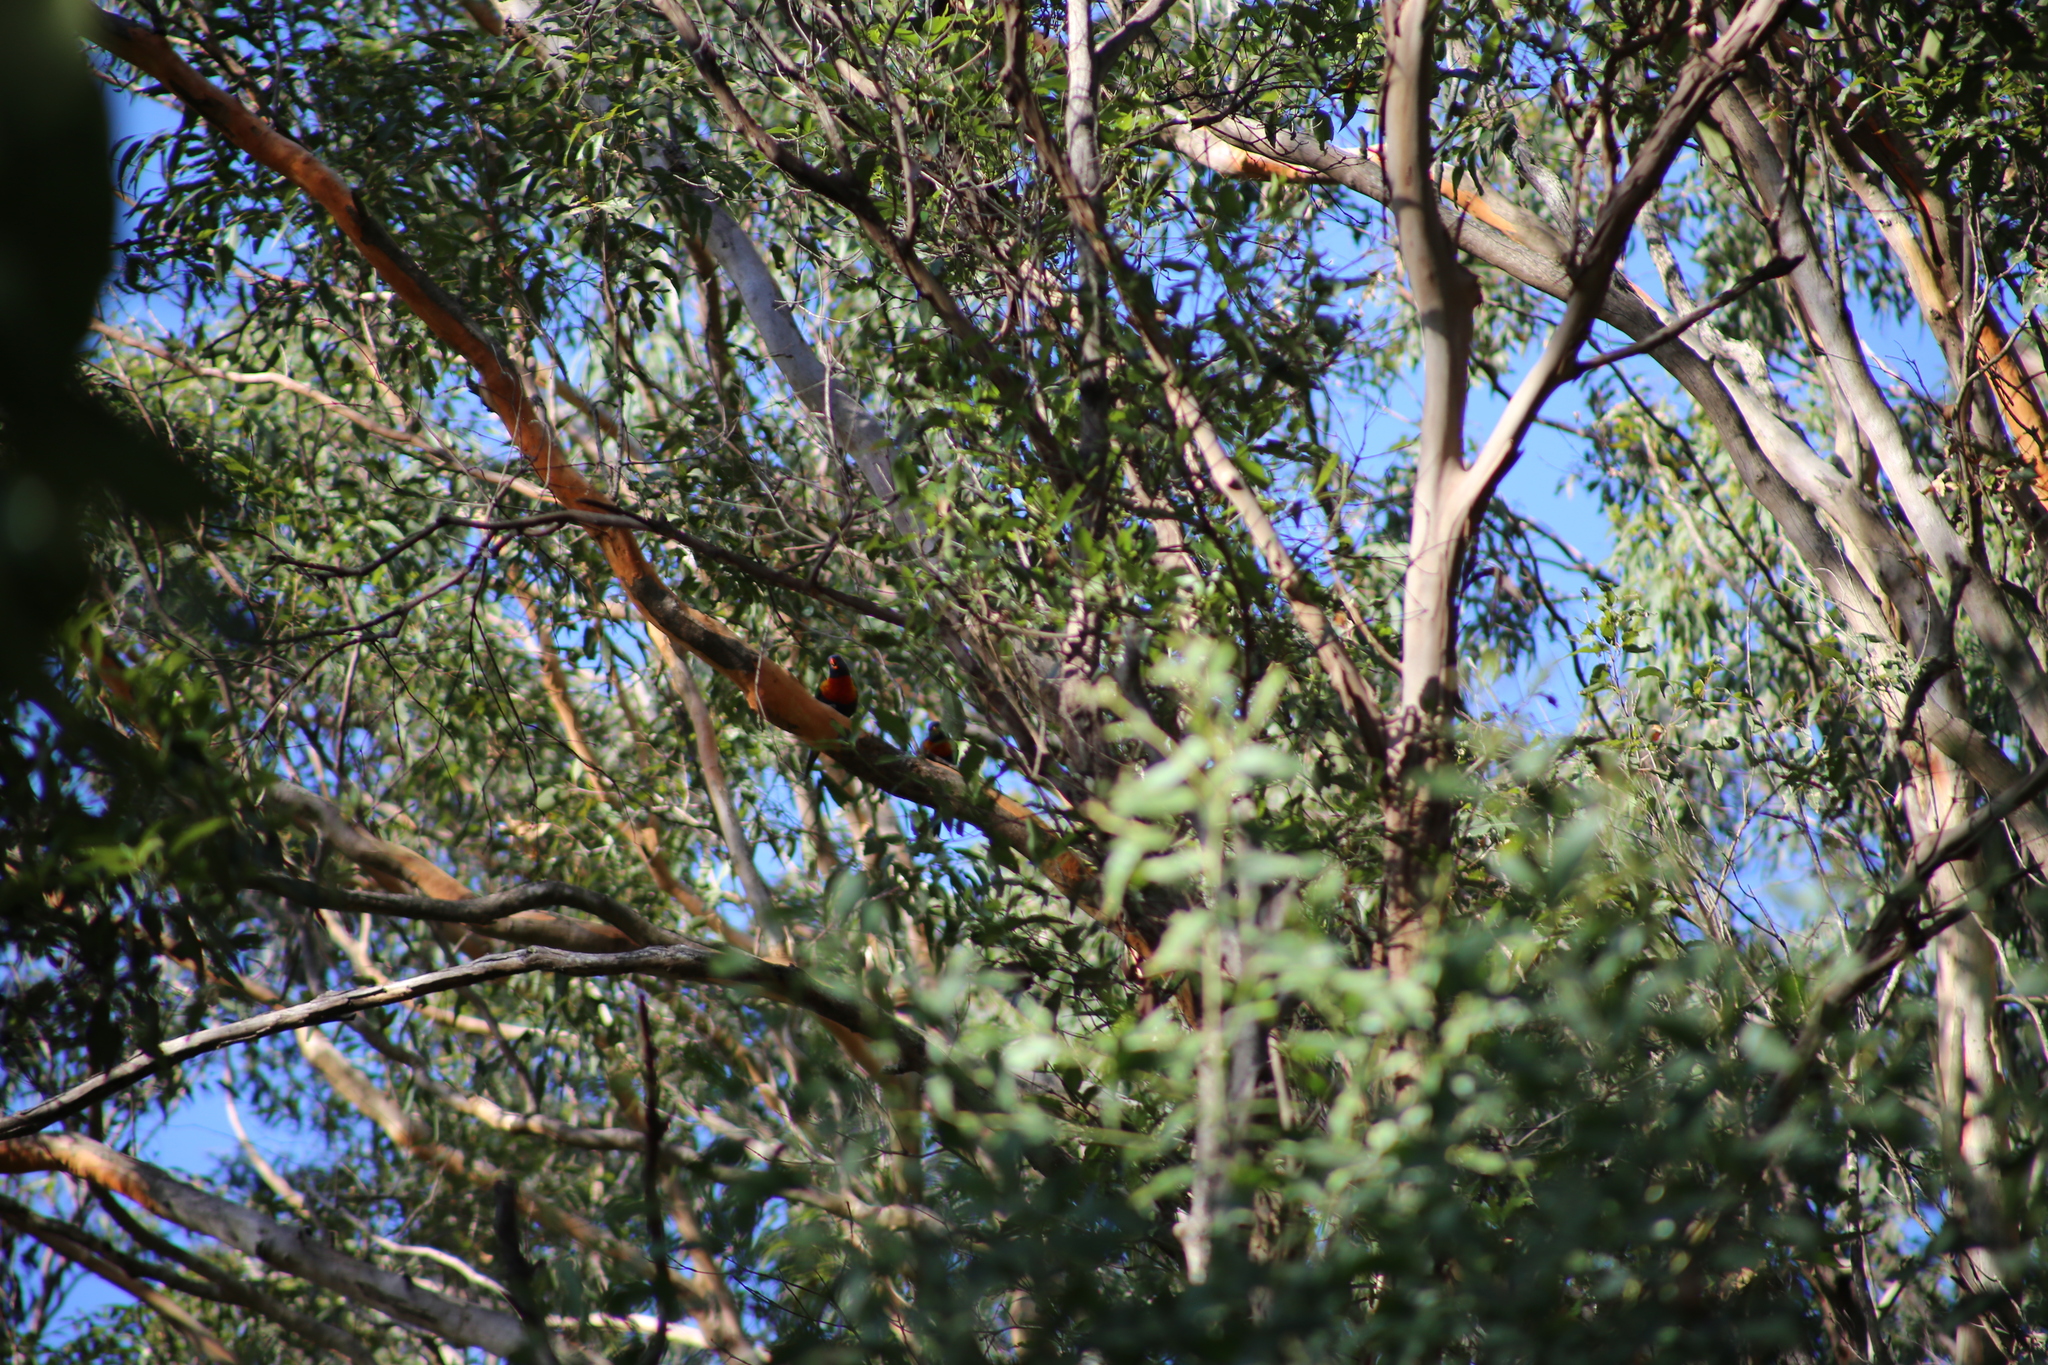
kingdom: Animalia
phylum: Chordata
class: Aves
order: Psittaciformes
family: Psittacidae
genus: Trichoglossus
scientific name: Trichoglossus haematodus
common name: Coconut lorikeet
